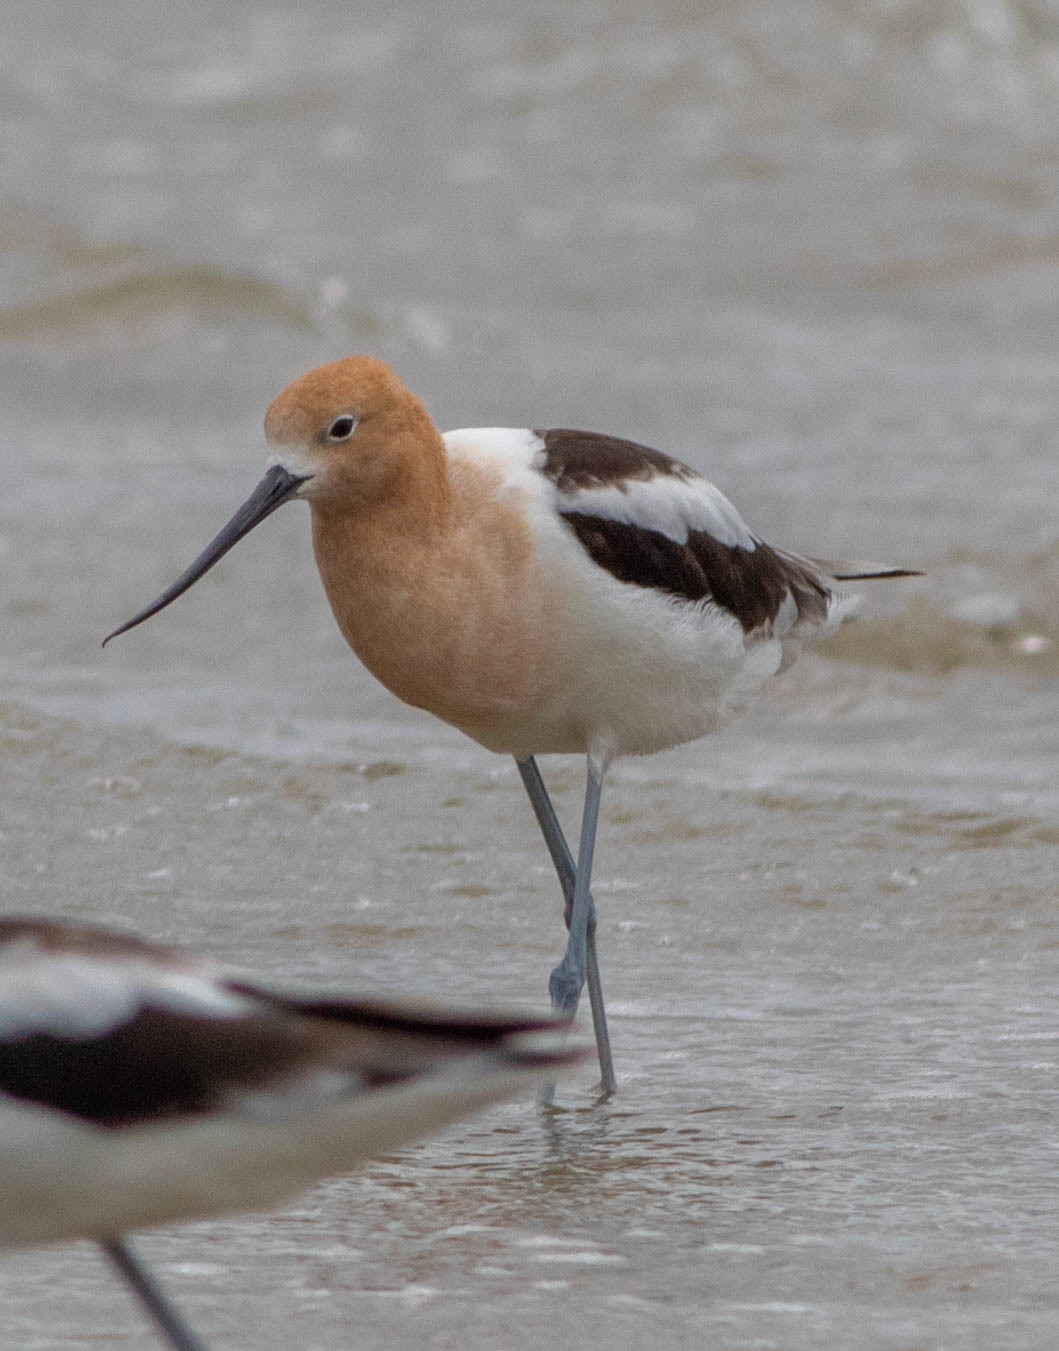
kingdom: Animalia
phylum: Chordata
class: Aves
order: Charadriiformes
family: Recurvirostridae
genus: Recurvirostra
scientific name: Recurvirostra americana
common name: American avocet
